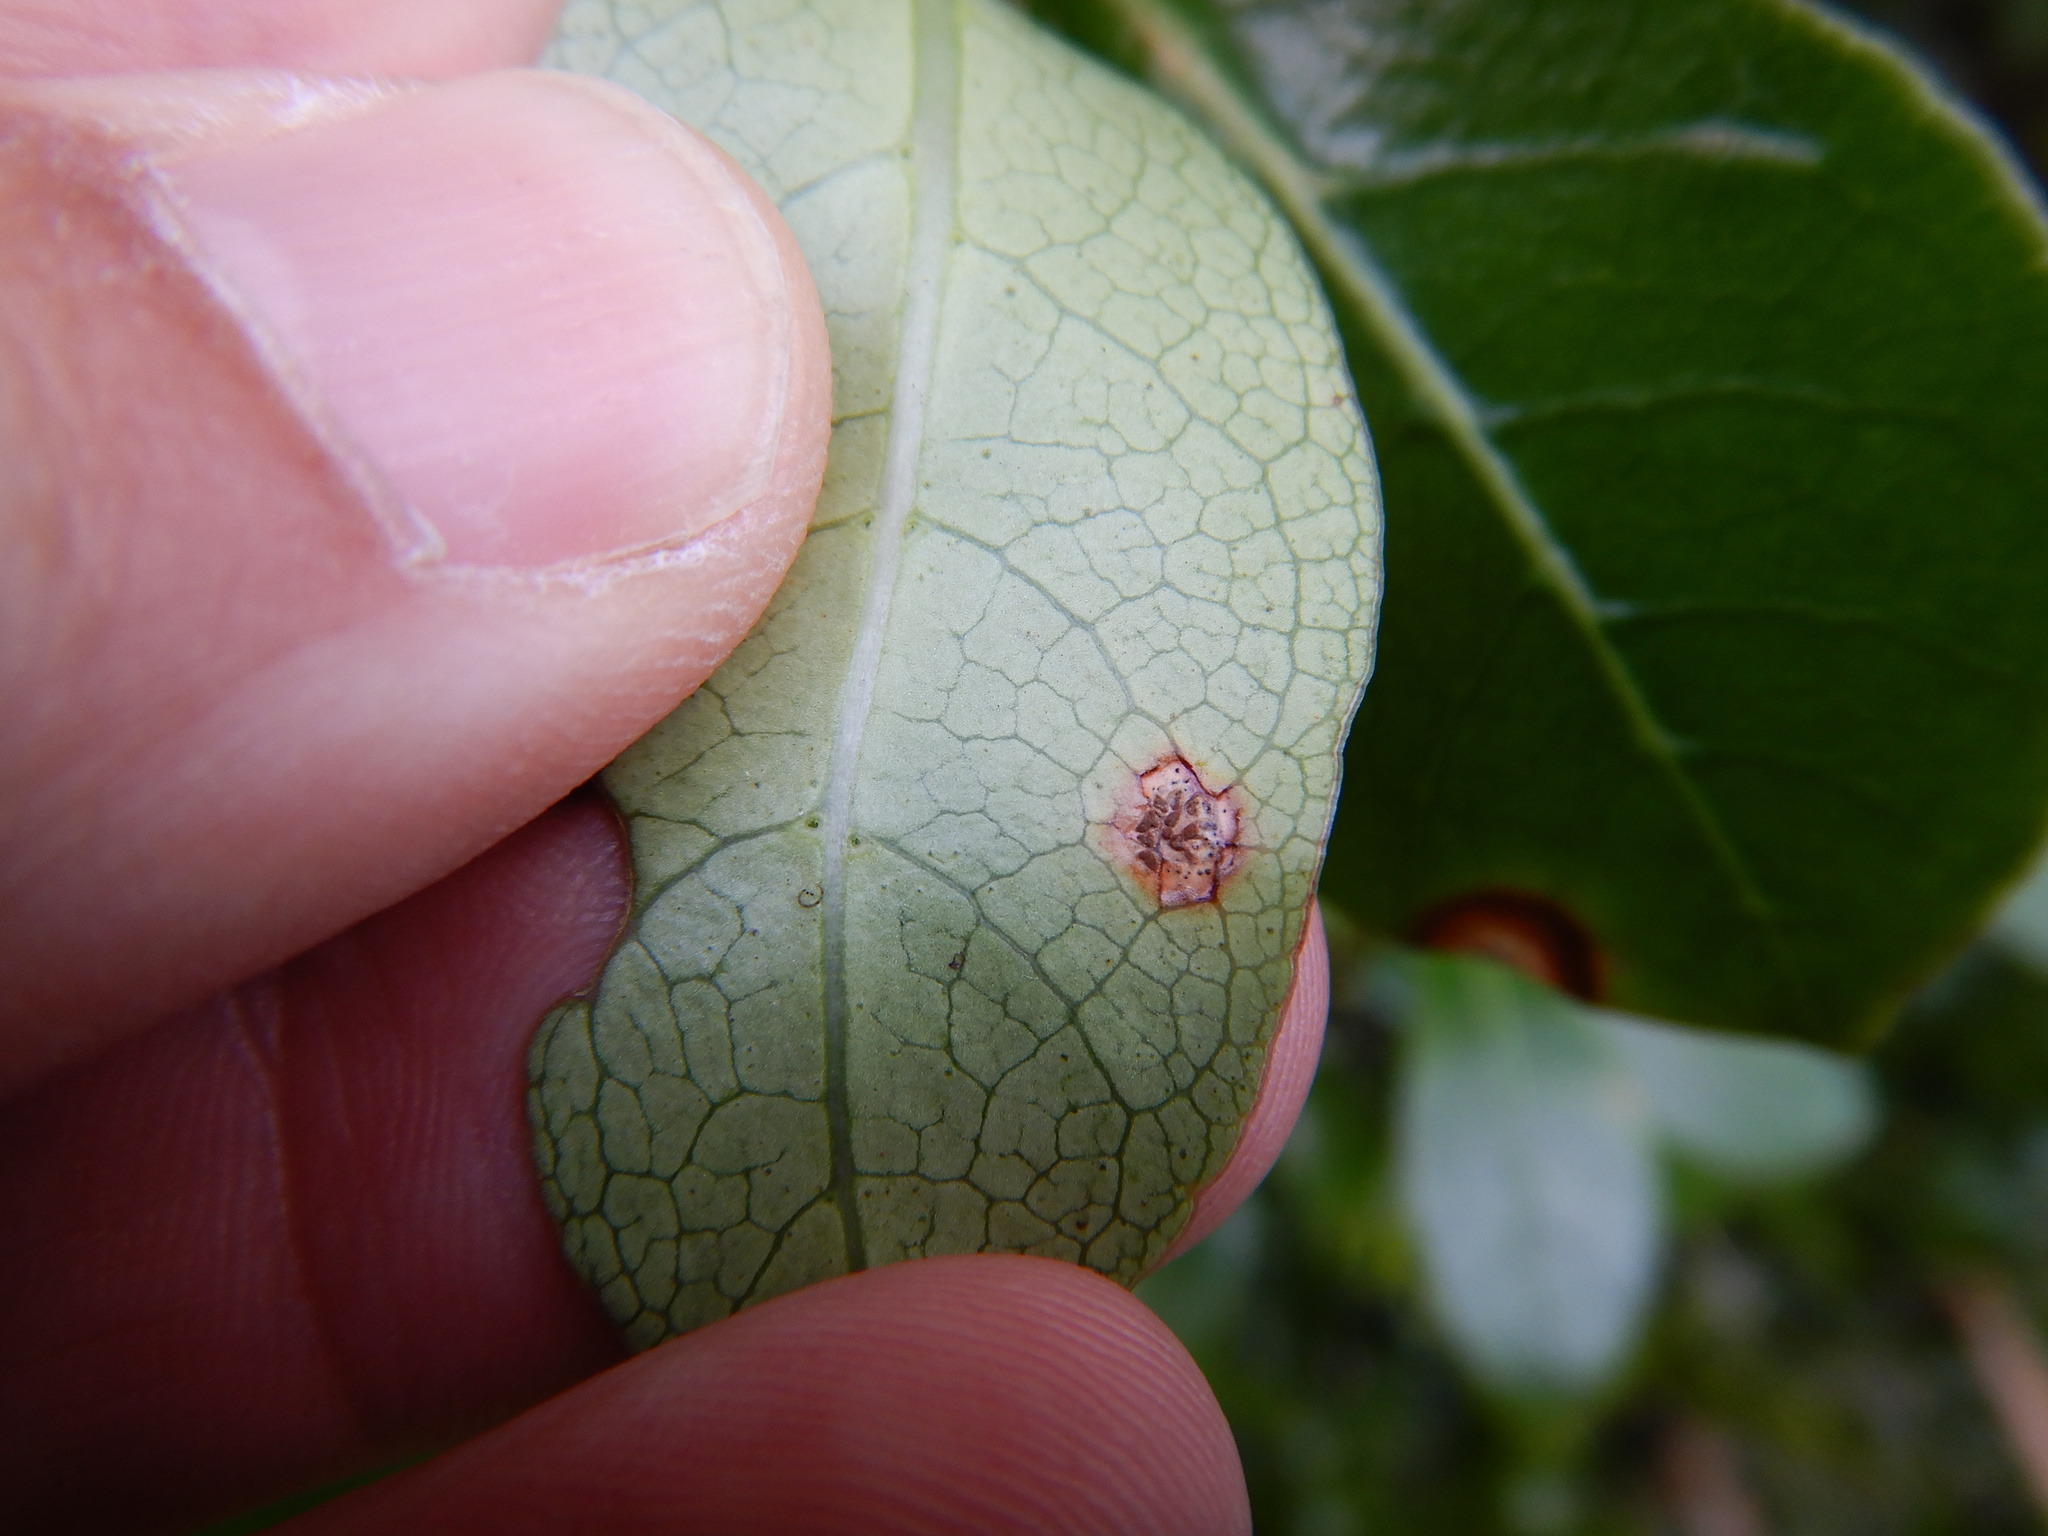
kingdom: Fungi
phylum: Basidiomycota
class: Pucciniomycetes
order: Pucciniales
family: Pucciniaceae
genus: Puccinia
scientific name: Puccinia coprosmae
